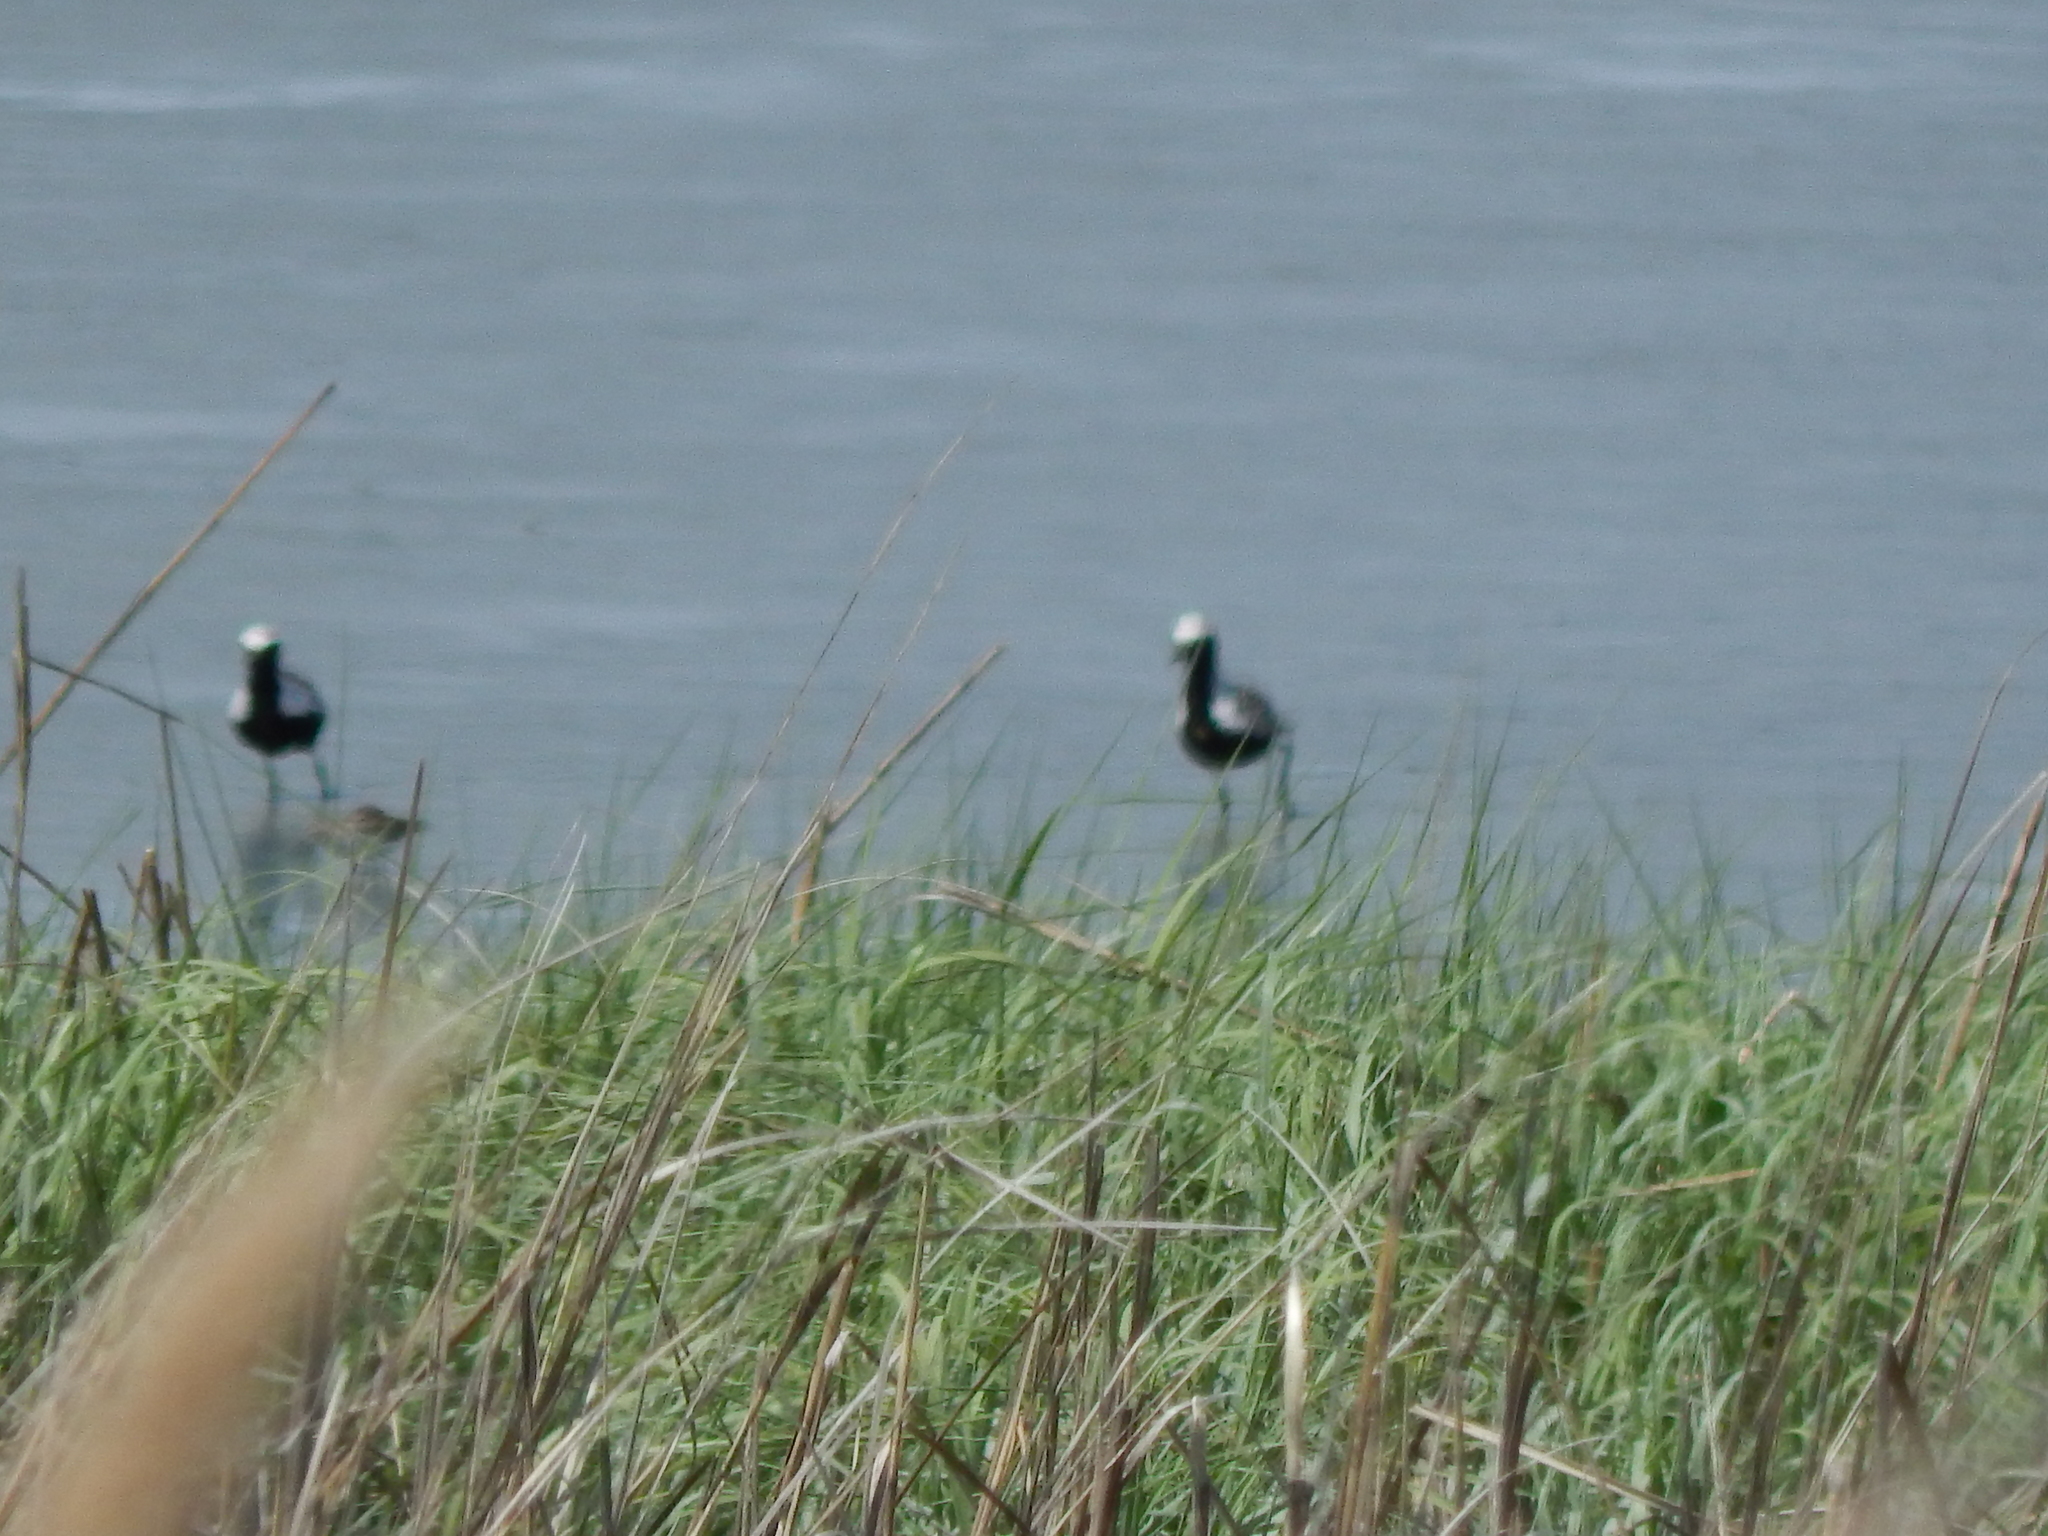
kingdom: Animalia
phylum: Chordata
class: Aves
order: Charadriiformes
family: Charadriidae
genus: Pluvialis
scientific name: Pluvialis squatarola
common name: Grey plover
